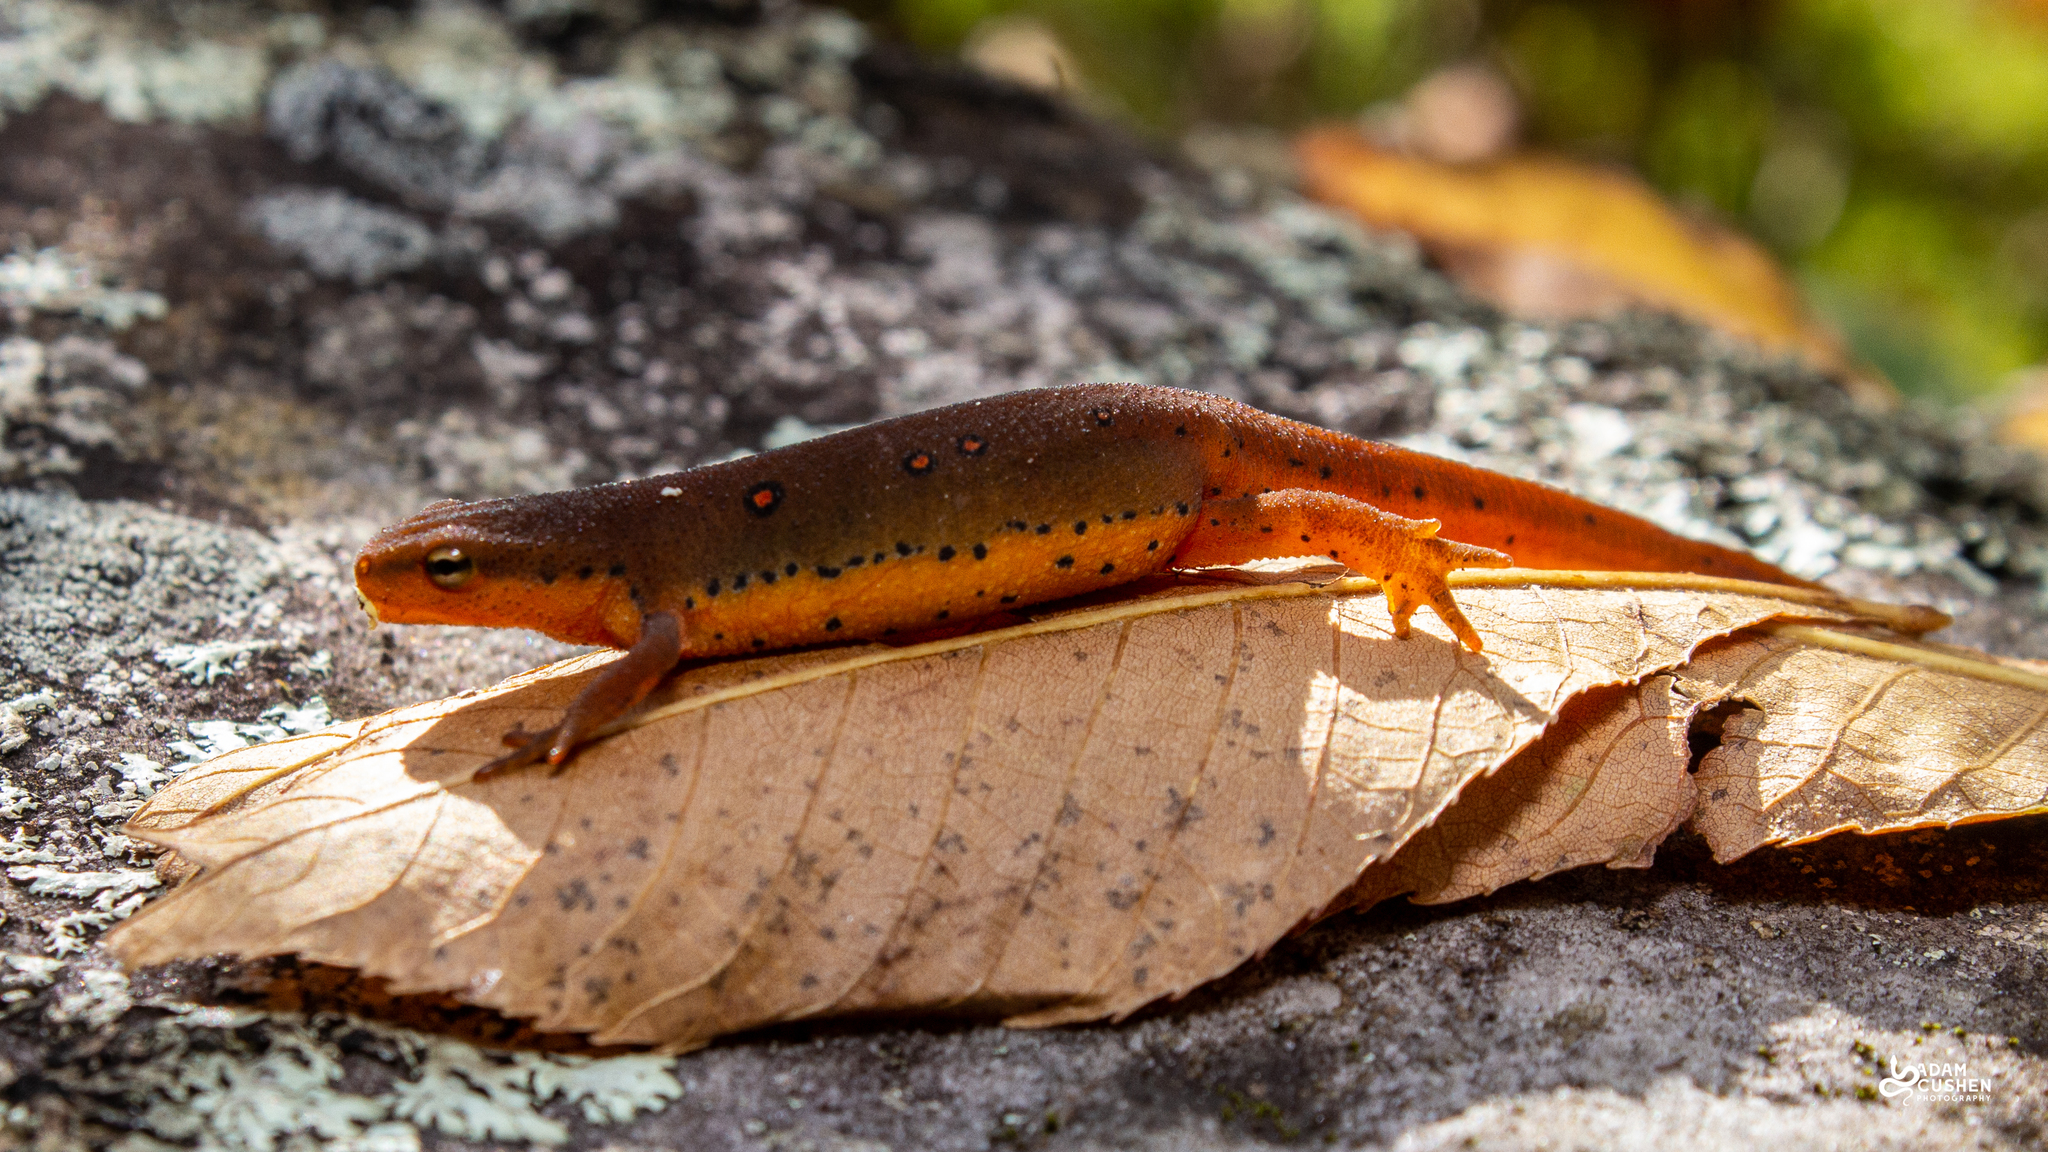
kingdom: Animalia
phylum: Chordata
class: Amphibia
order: Caudata
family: Salamandridae
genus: Notophthalmus
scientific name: Notophthalmus viridescens
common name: Eastern newt
